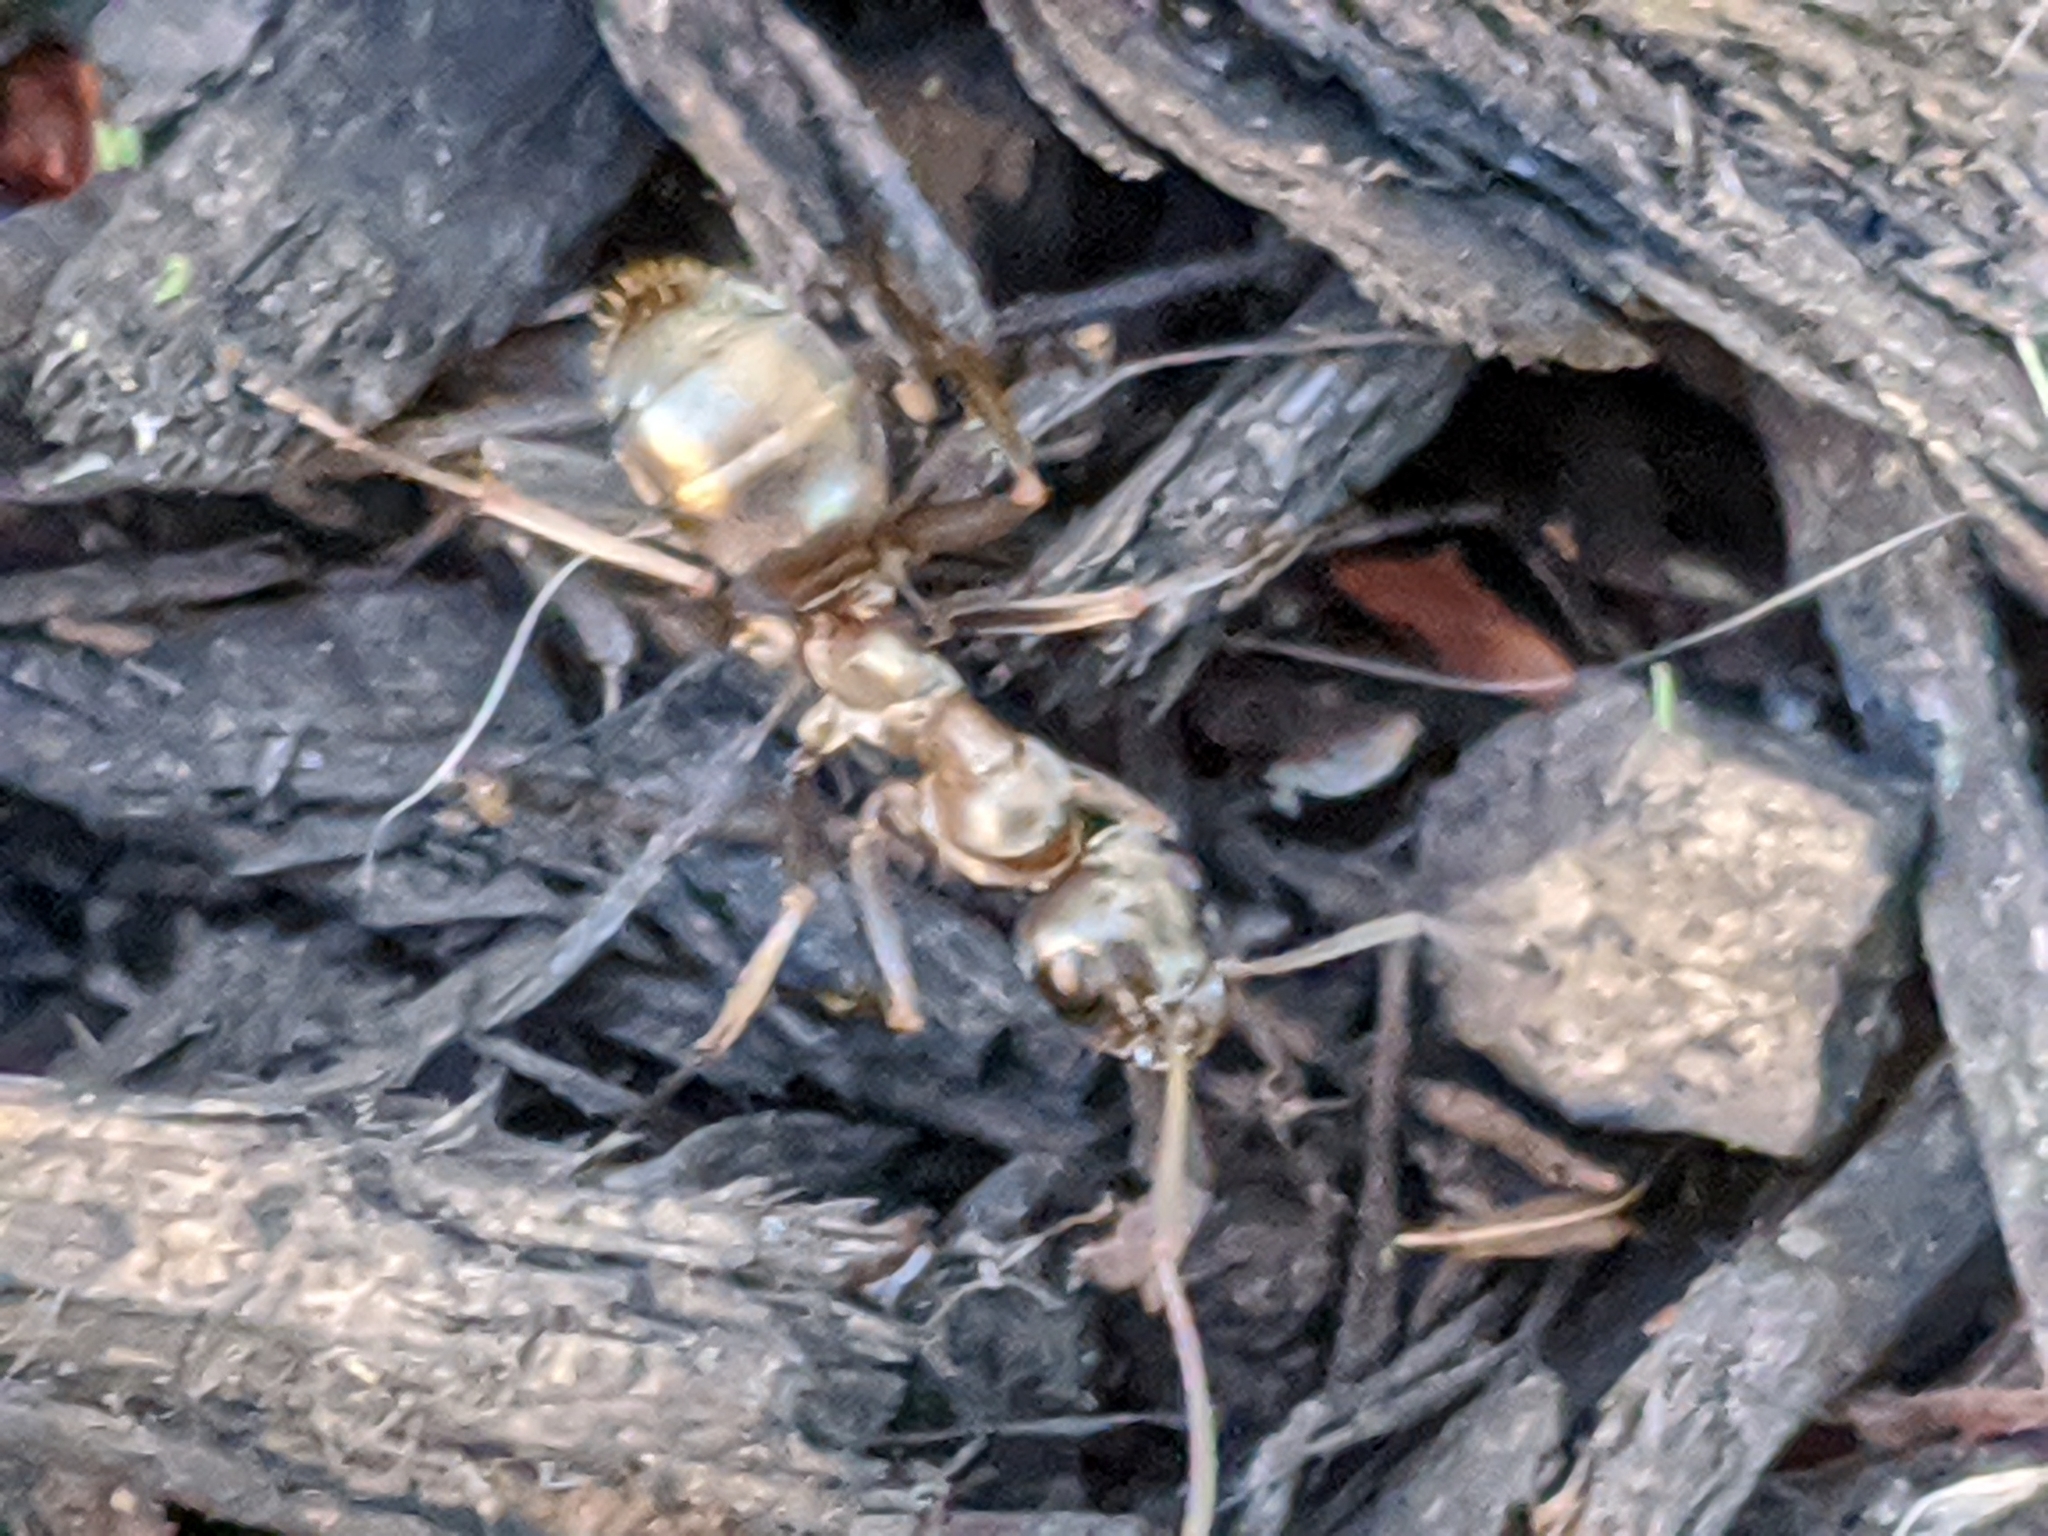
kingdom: Animalia
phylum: Arthropoda
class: Insecta
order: Hymenoptera
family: Formicidae
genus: Formica
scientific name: Formica
